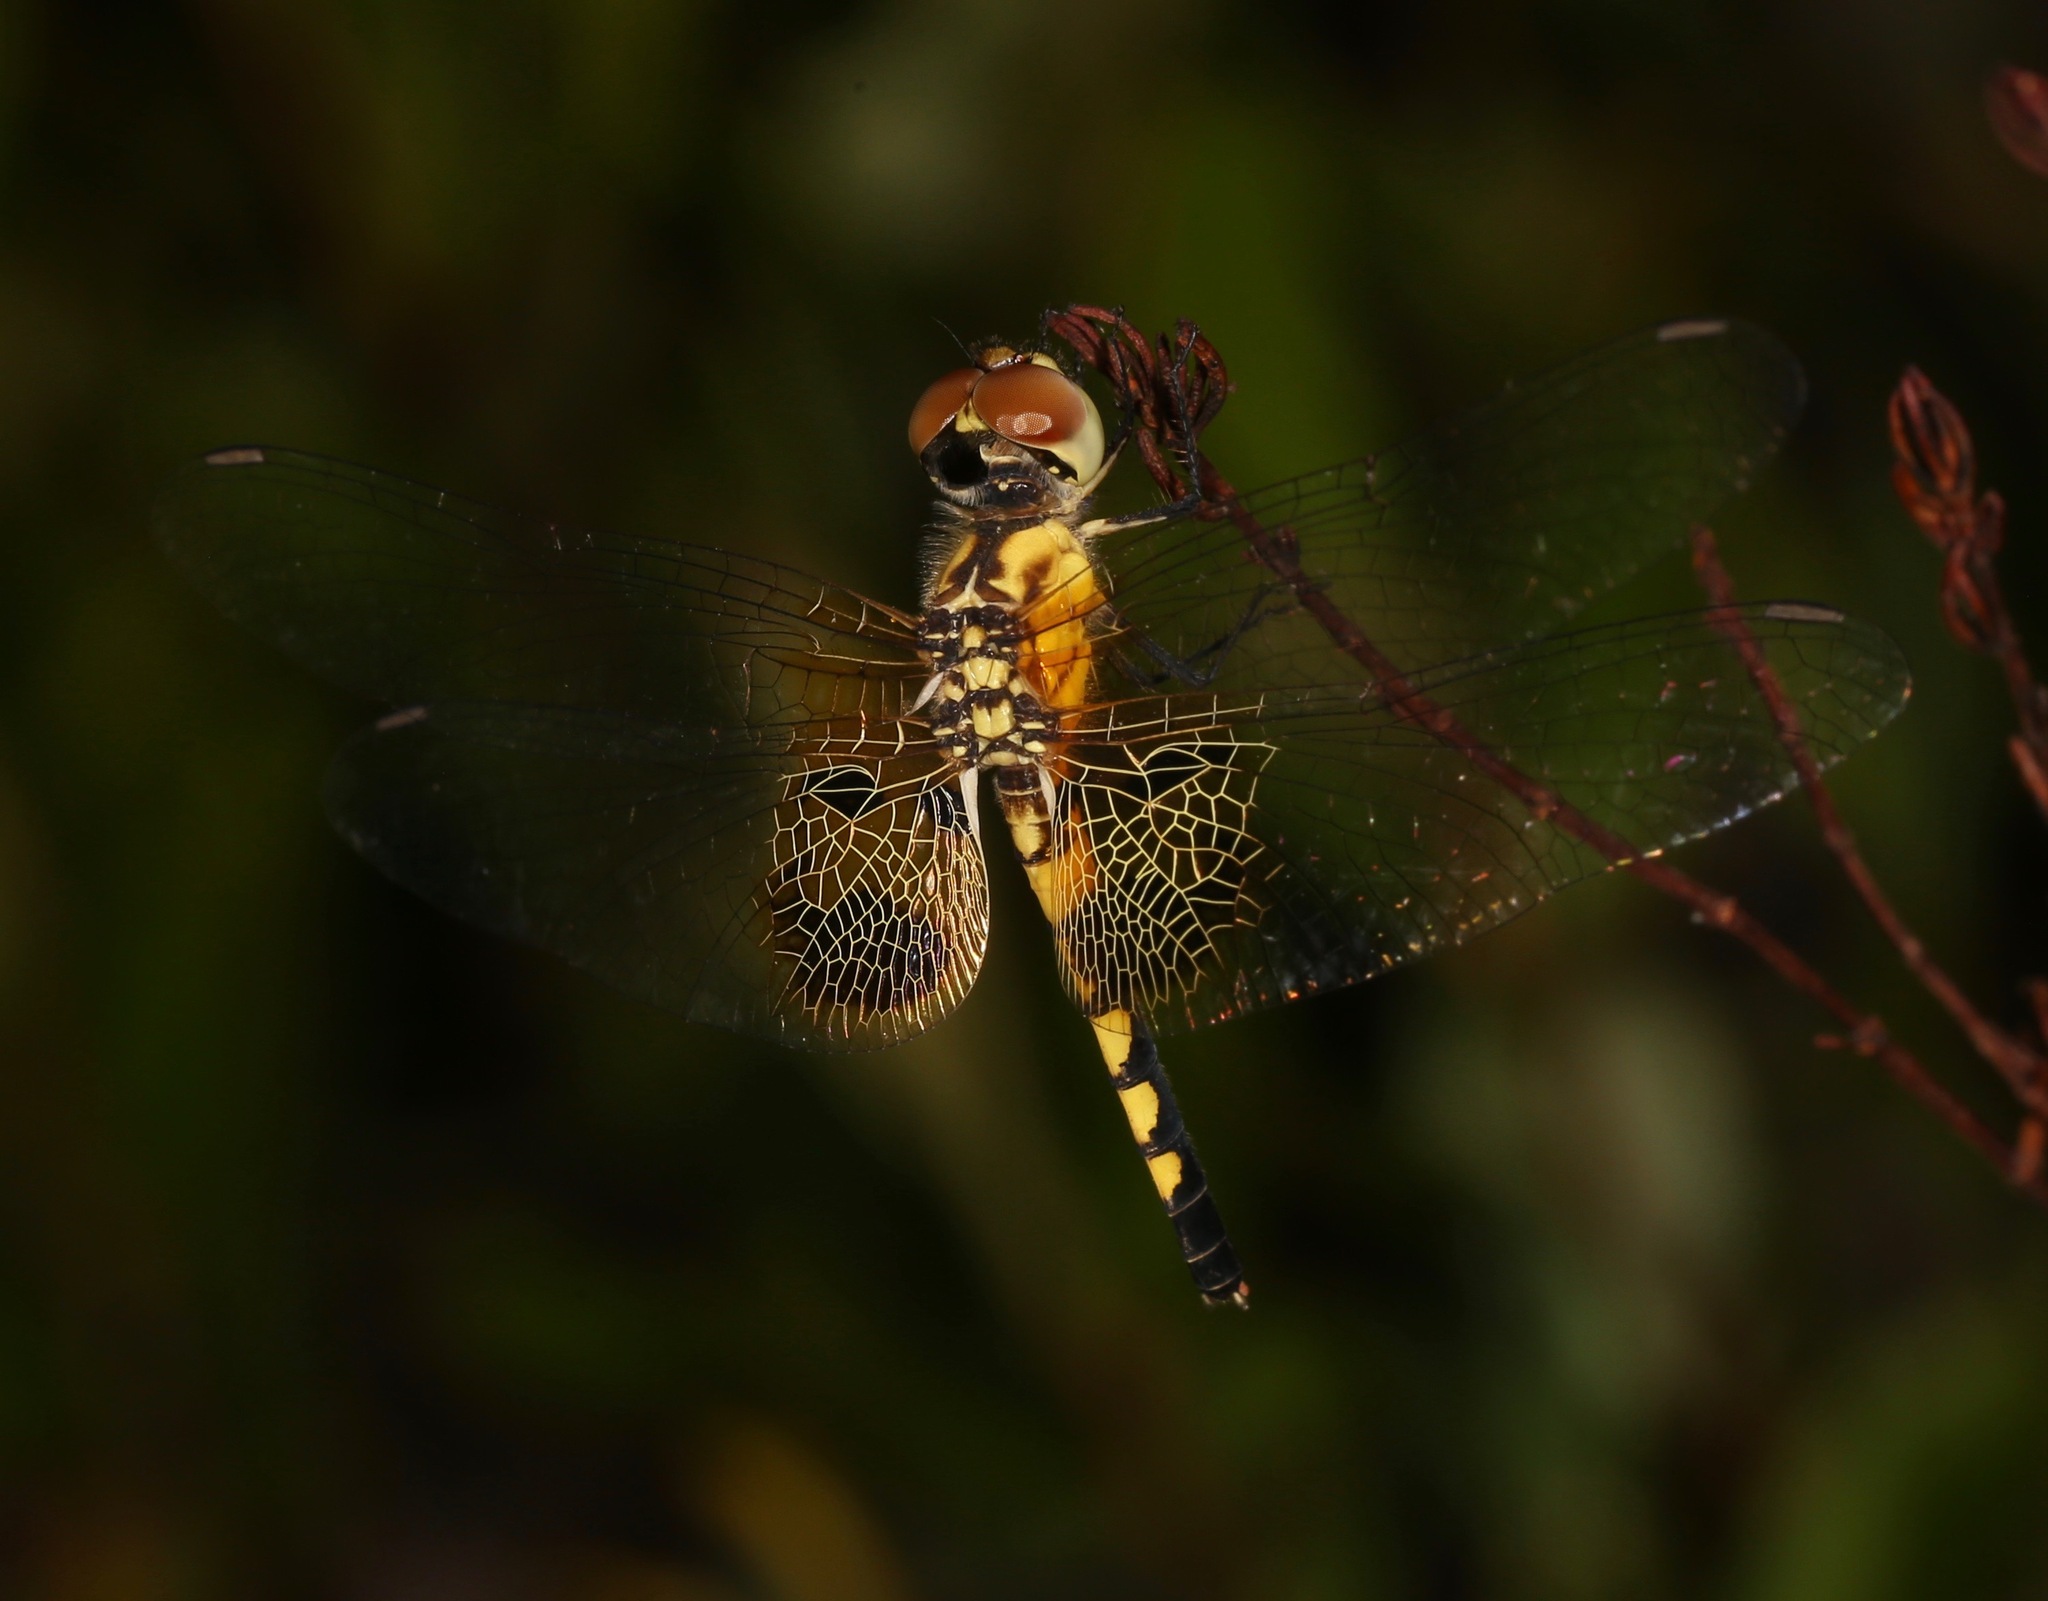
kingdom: Animalia
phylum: Arthropoda
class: Insecta
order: Odonata
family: Libellulidae
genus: Celithemis
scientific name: Celithemis amanda
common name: Amanda's pennant
